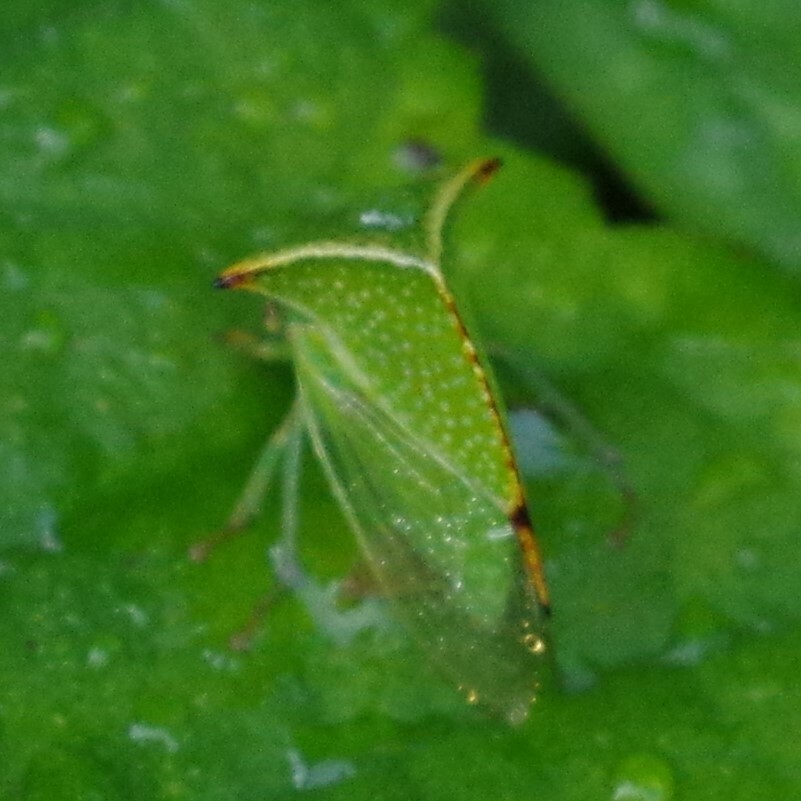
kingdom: Animalia
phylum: Arthropoda
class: Insecta
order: Hemiptera
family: Membracidae
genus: Stictocephala
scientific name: Stictocephala bisonia
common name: American buffalo treehopper
